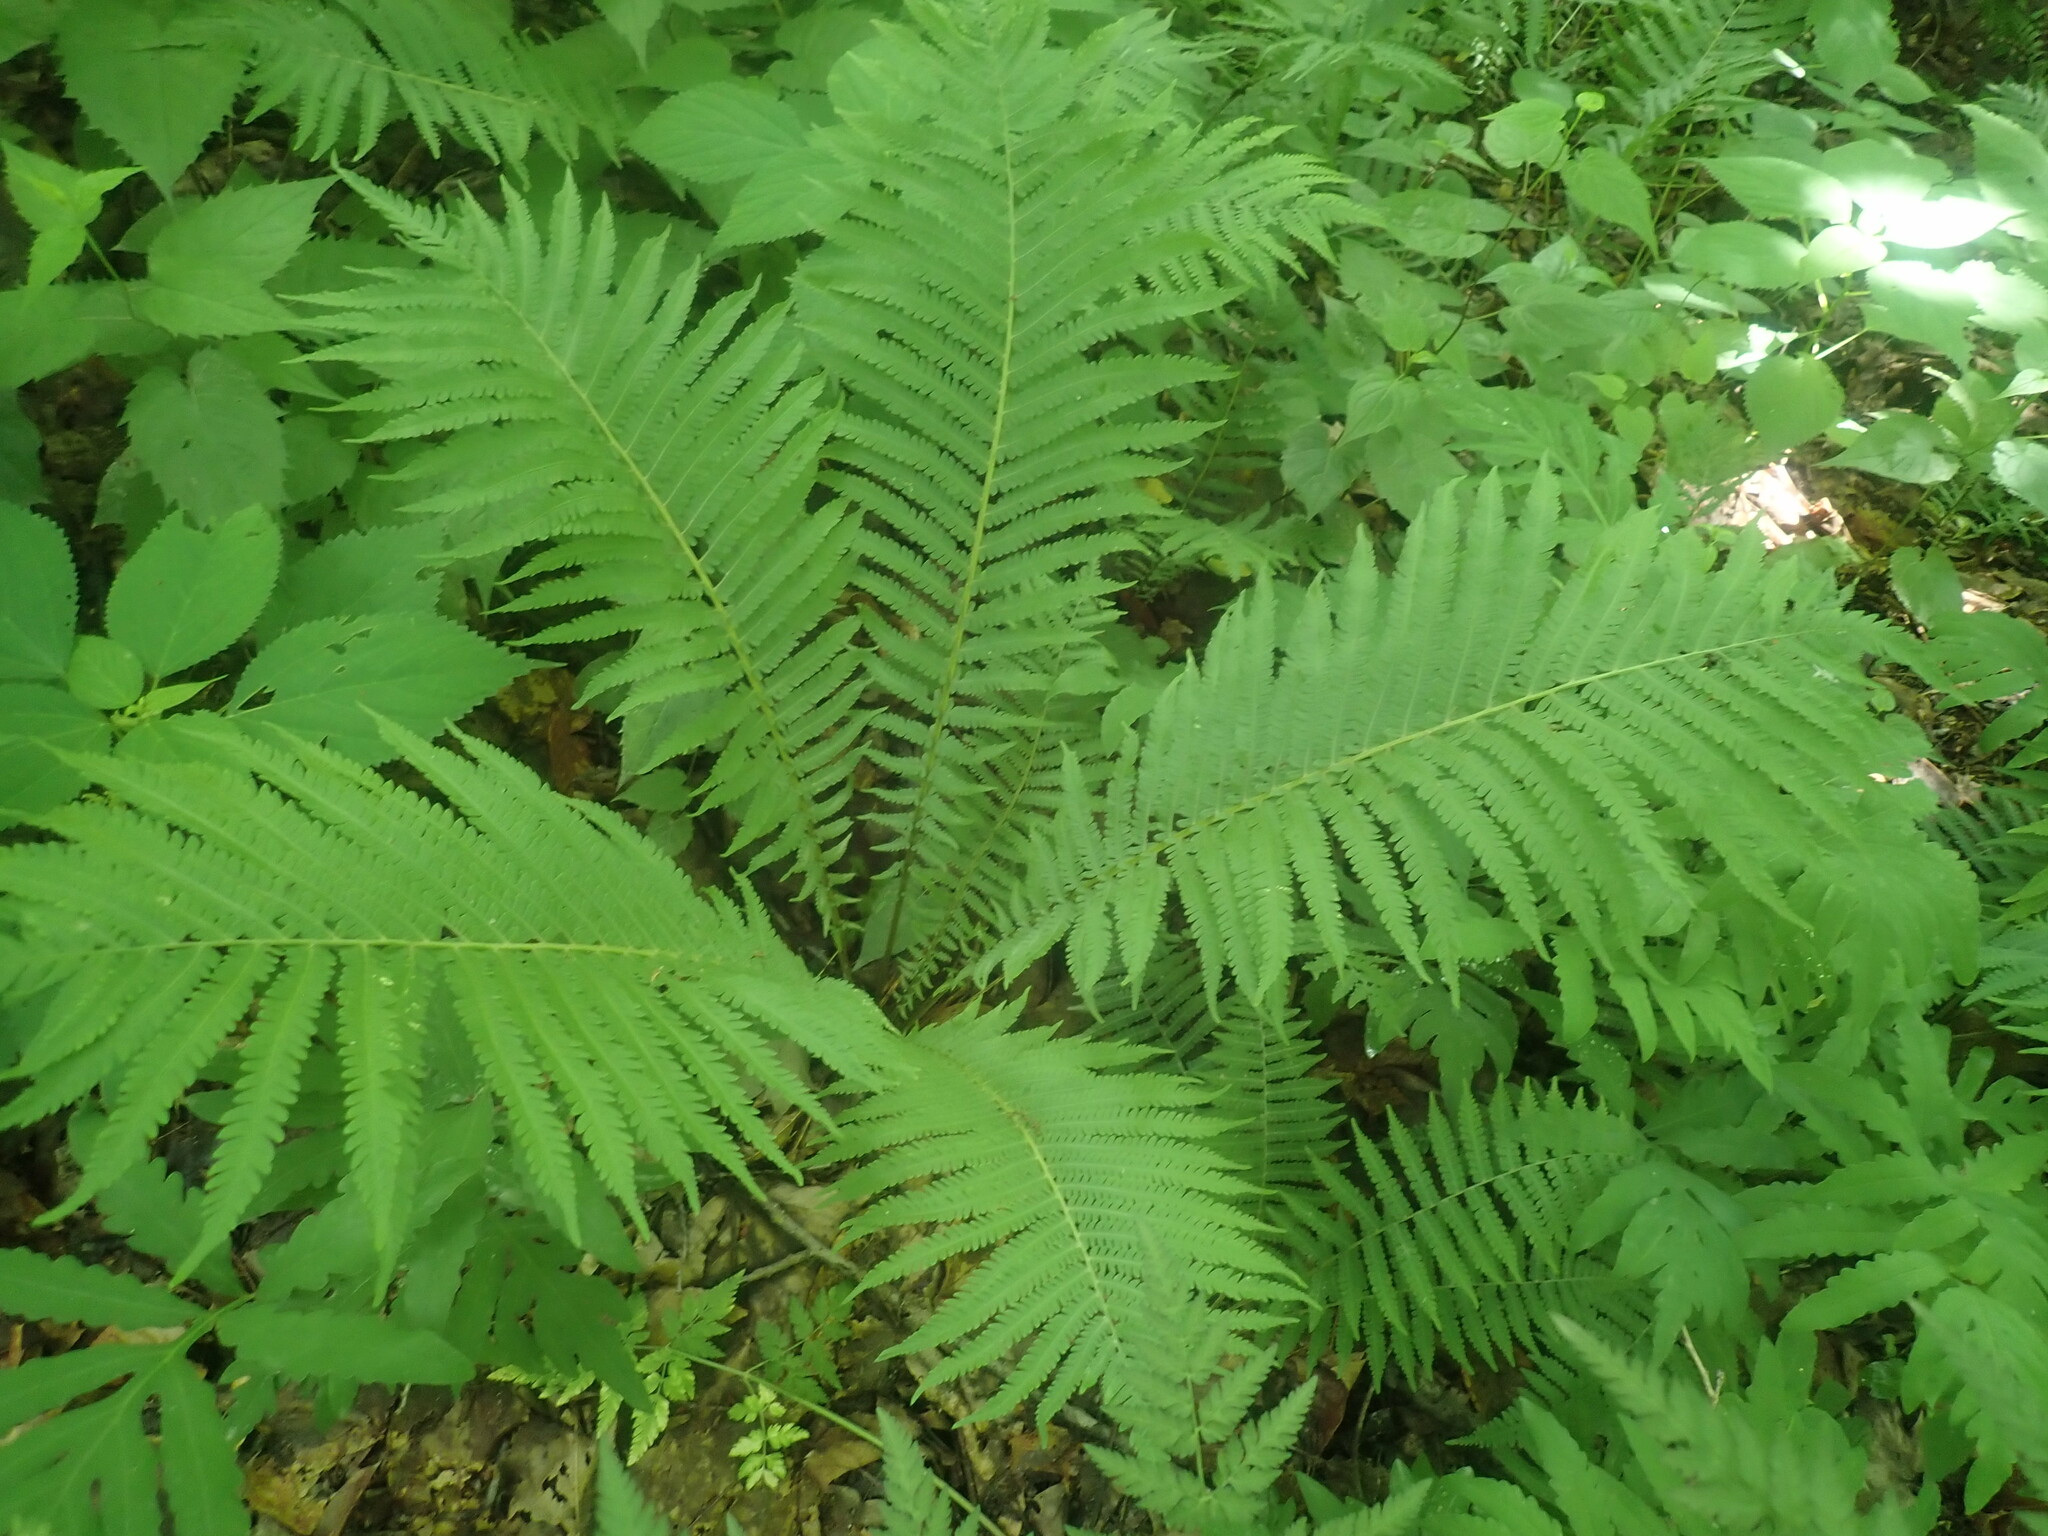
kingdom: Plantae
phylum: Tracheophyta
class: Polypodiopsida
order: Polypodiales
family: Onocleaceae
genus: Matteuccia
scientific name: Matteuccia struthiopteris
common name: Ostrich fern
